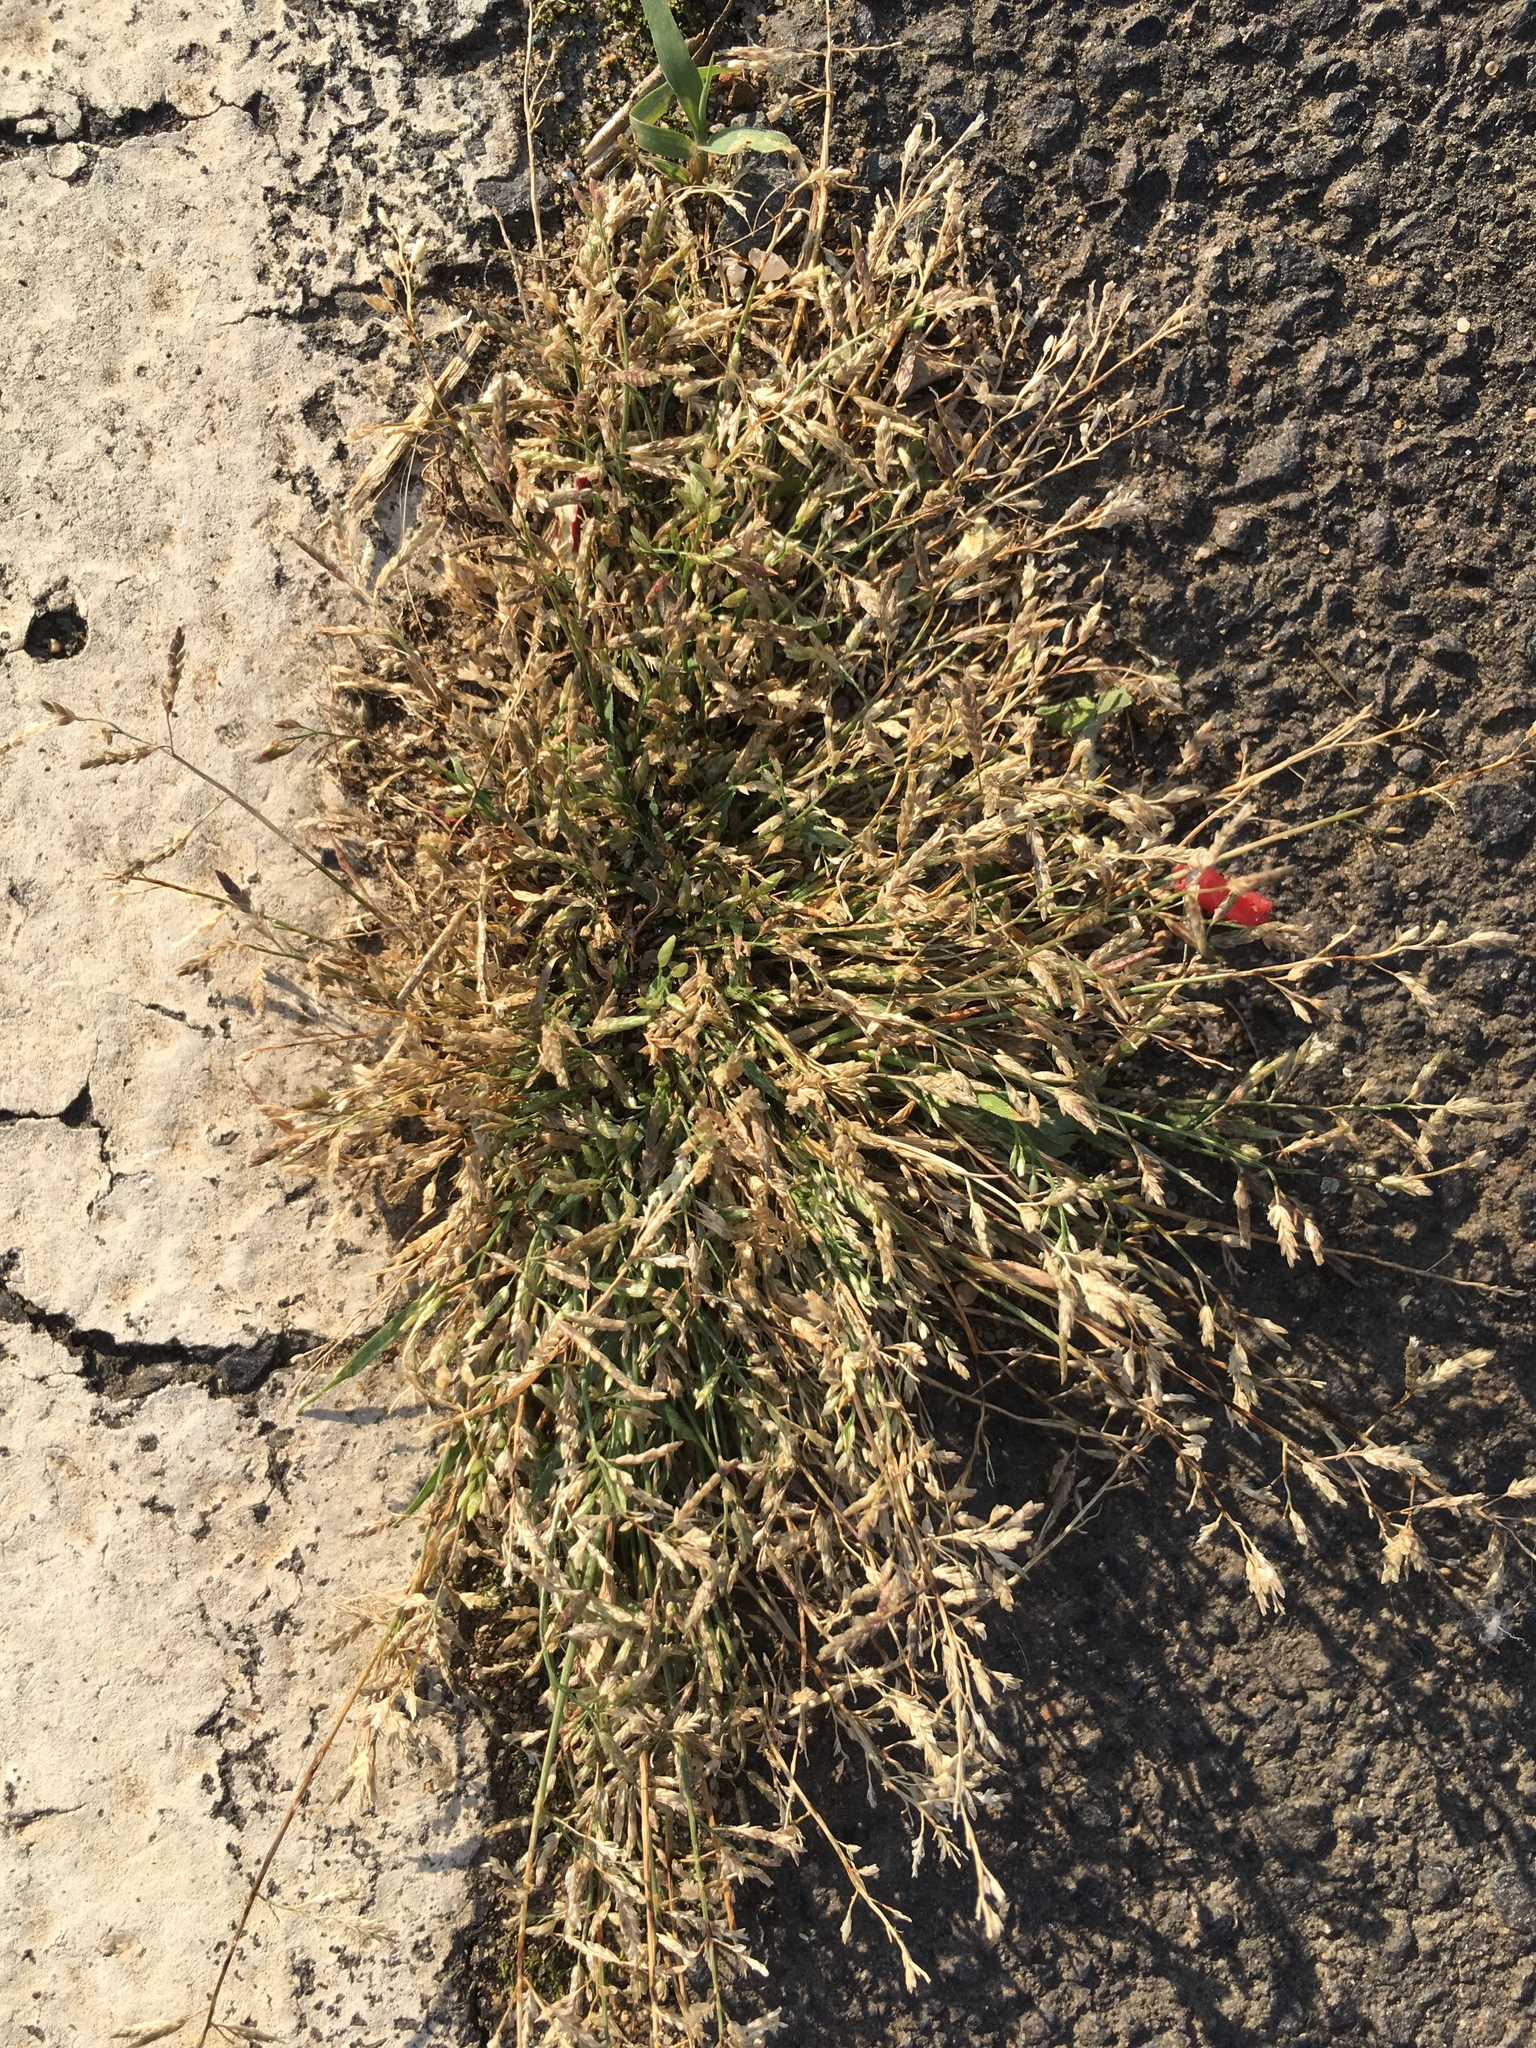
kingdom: Plantae
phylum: Tracheophyta
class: Liliopsida
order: Poales
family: Poaceae
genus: Eragrostis
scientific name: Eragrostis minor
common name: Small love-grass
